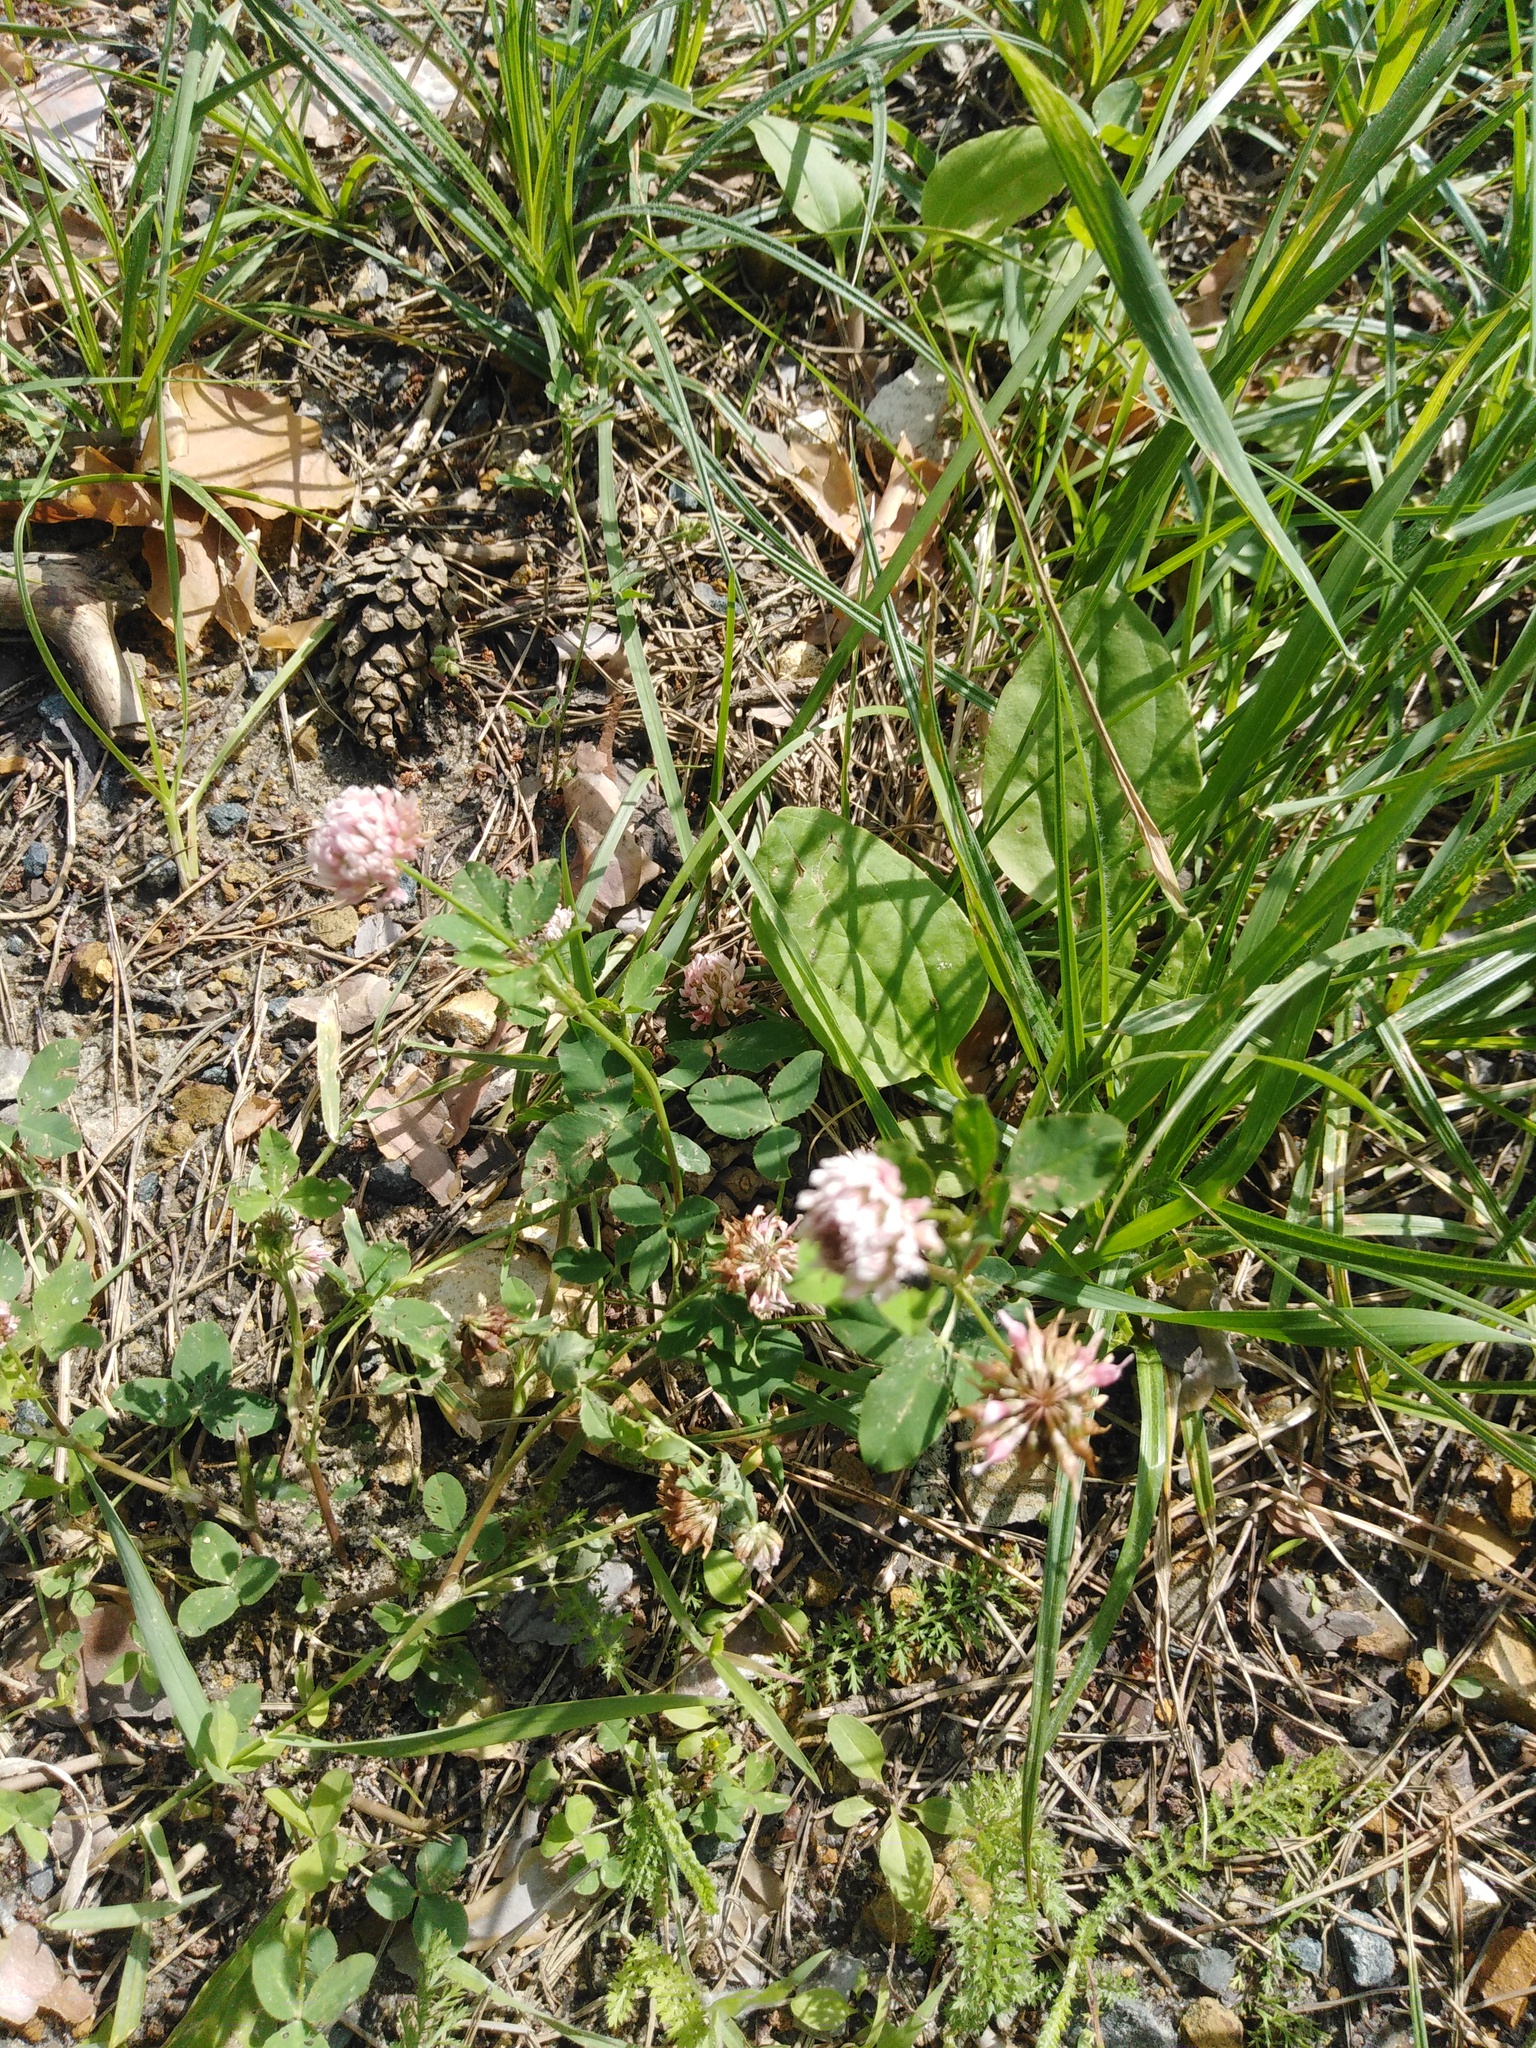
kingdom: Plantae
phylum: Tracheophyta
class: Magnoliopsida
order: Fabales
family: Fabaceae
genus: Trifolium
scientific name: Trifolium hybridum
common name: Alsike clover
